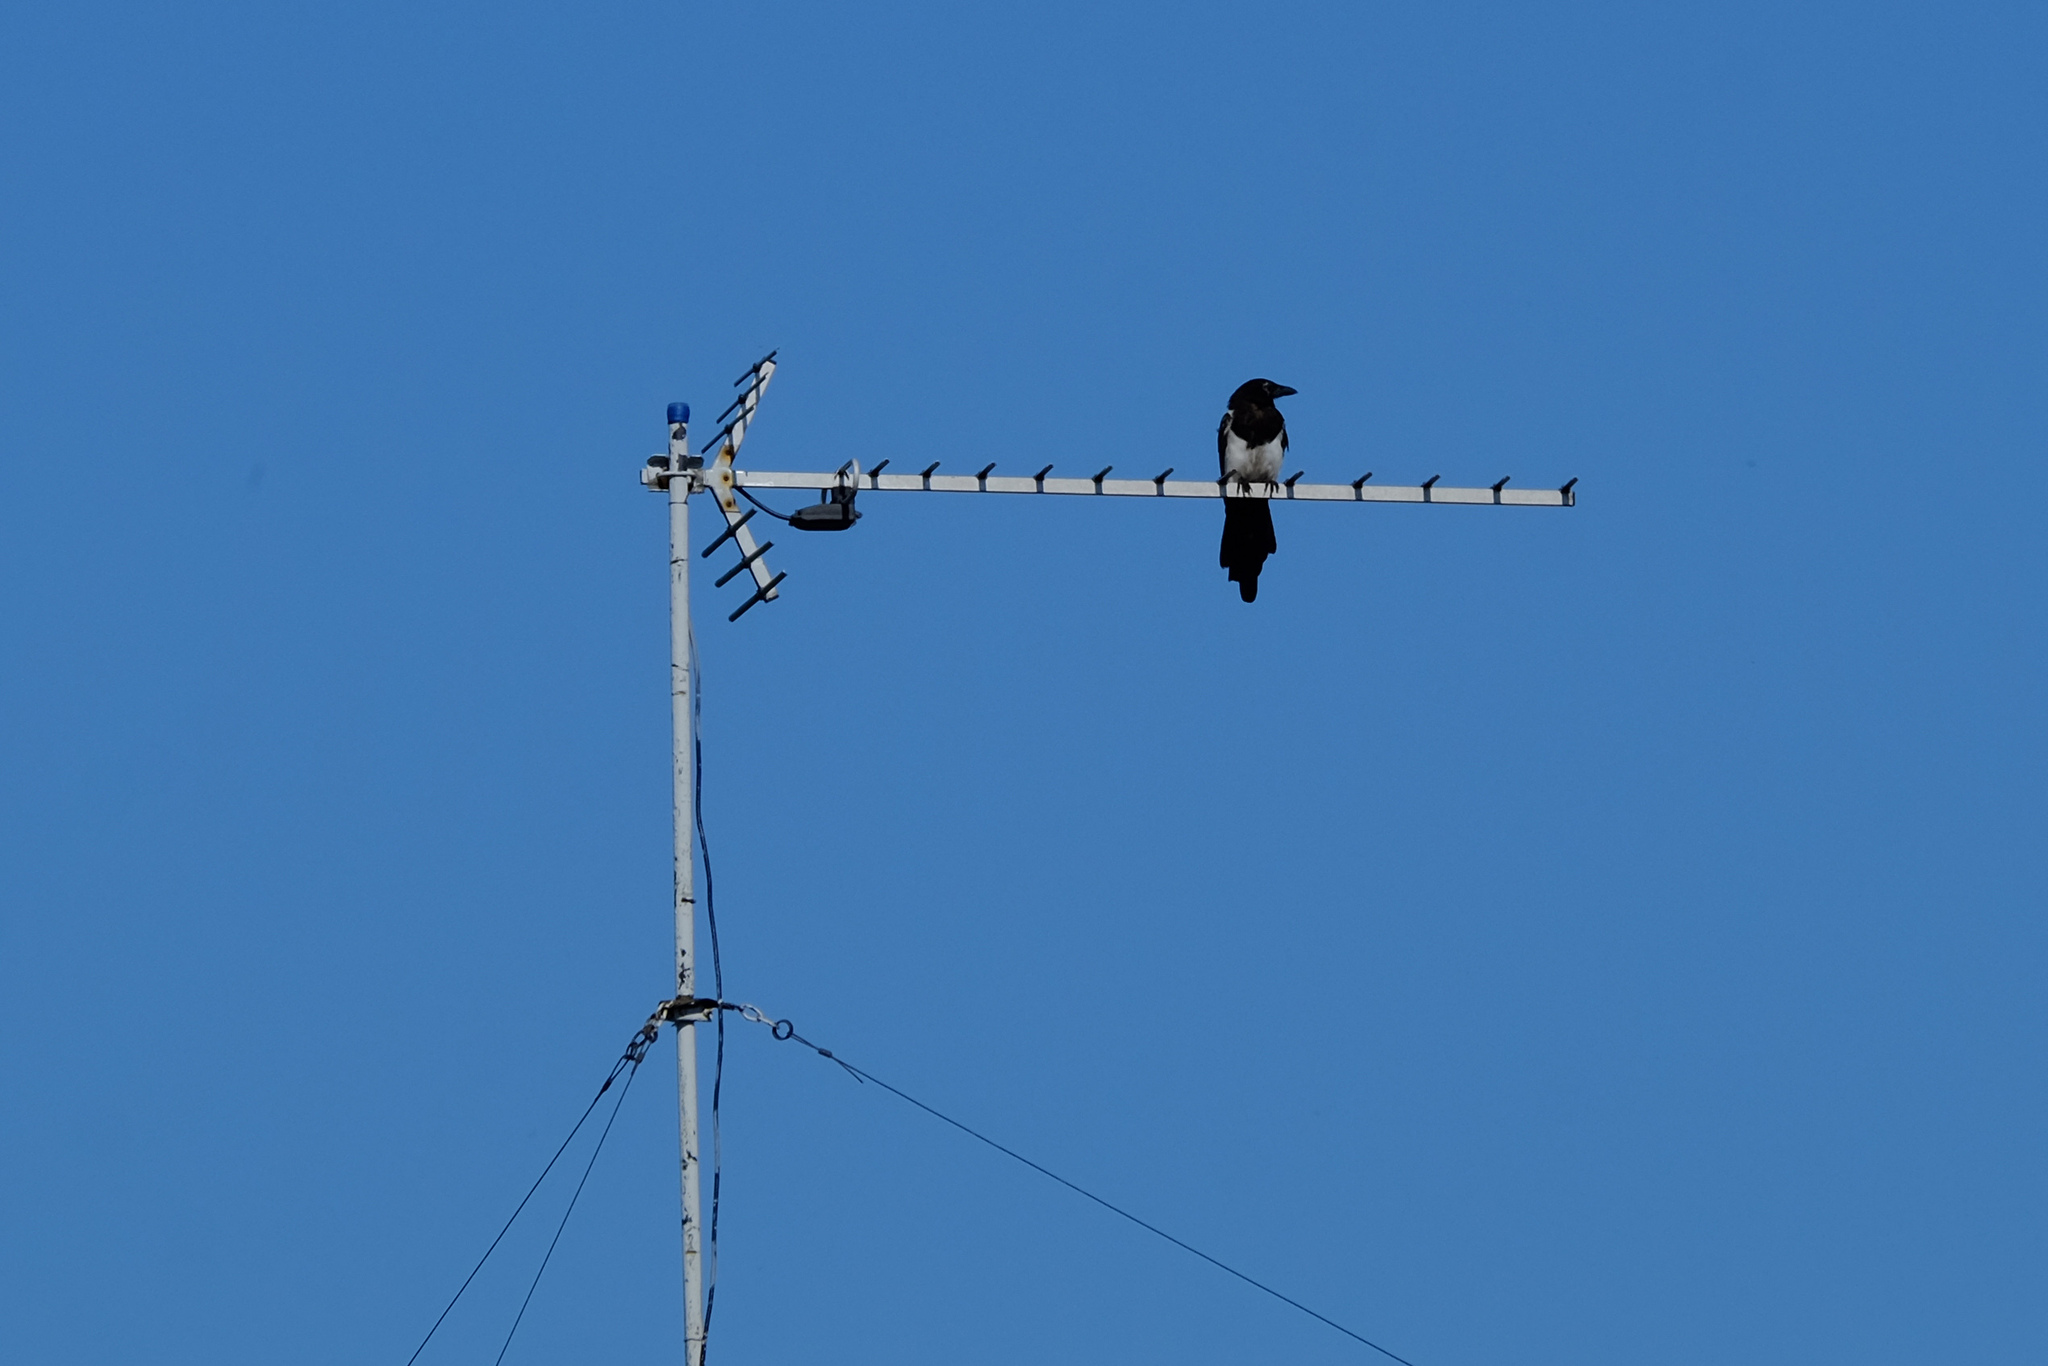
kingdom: Animalia
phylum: Chordata
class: Aves
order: Passeriformes
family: Corvidae
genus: Pica
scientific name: Pica pica
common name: Eurasian magpie
